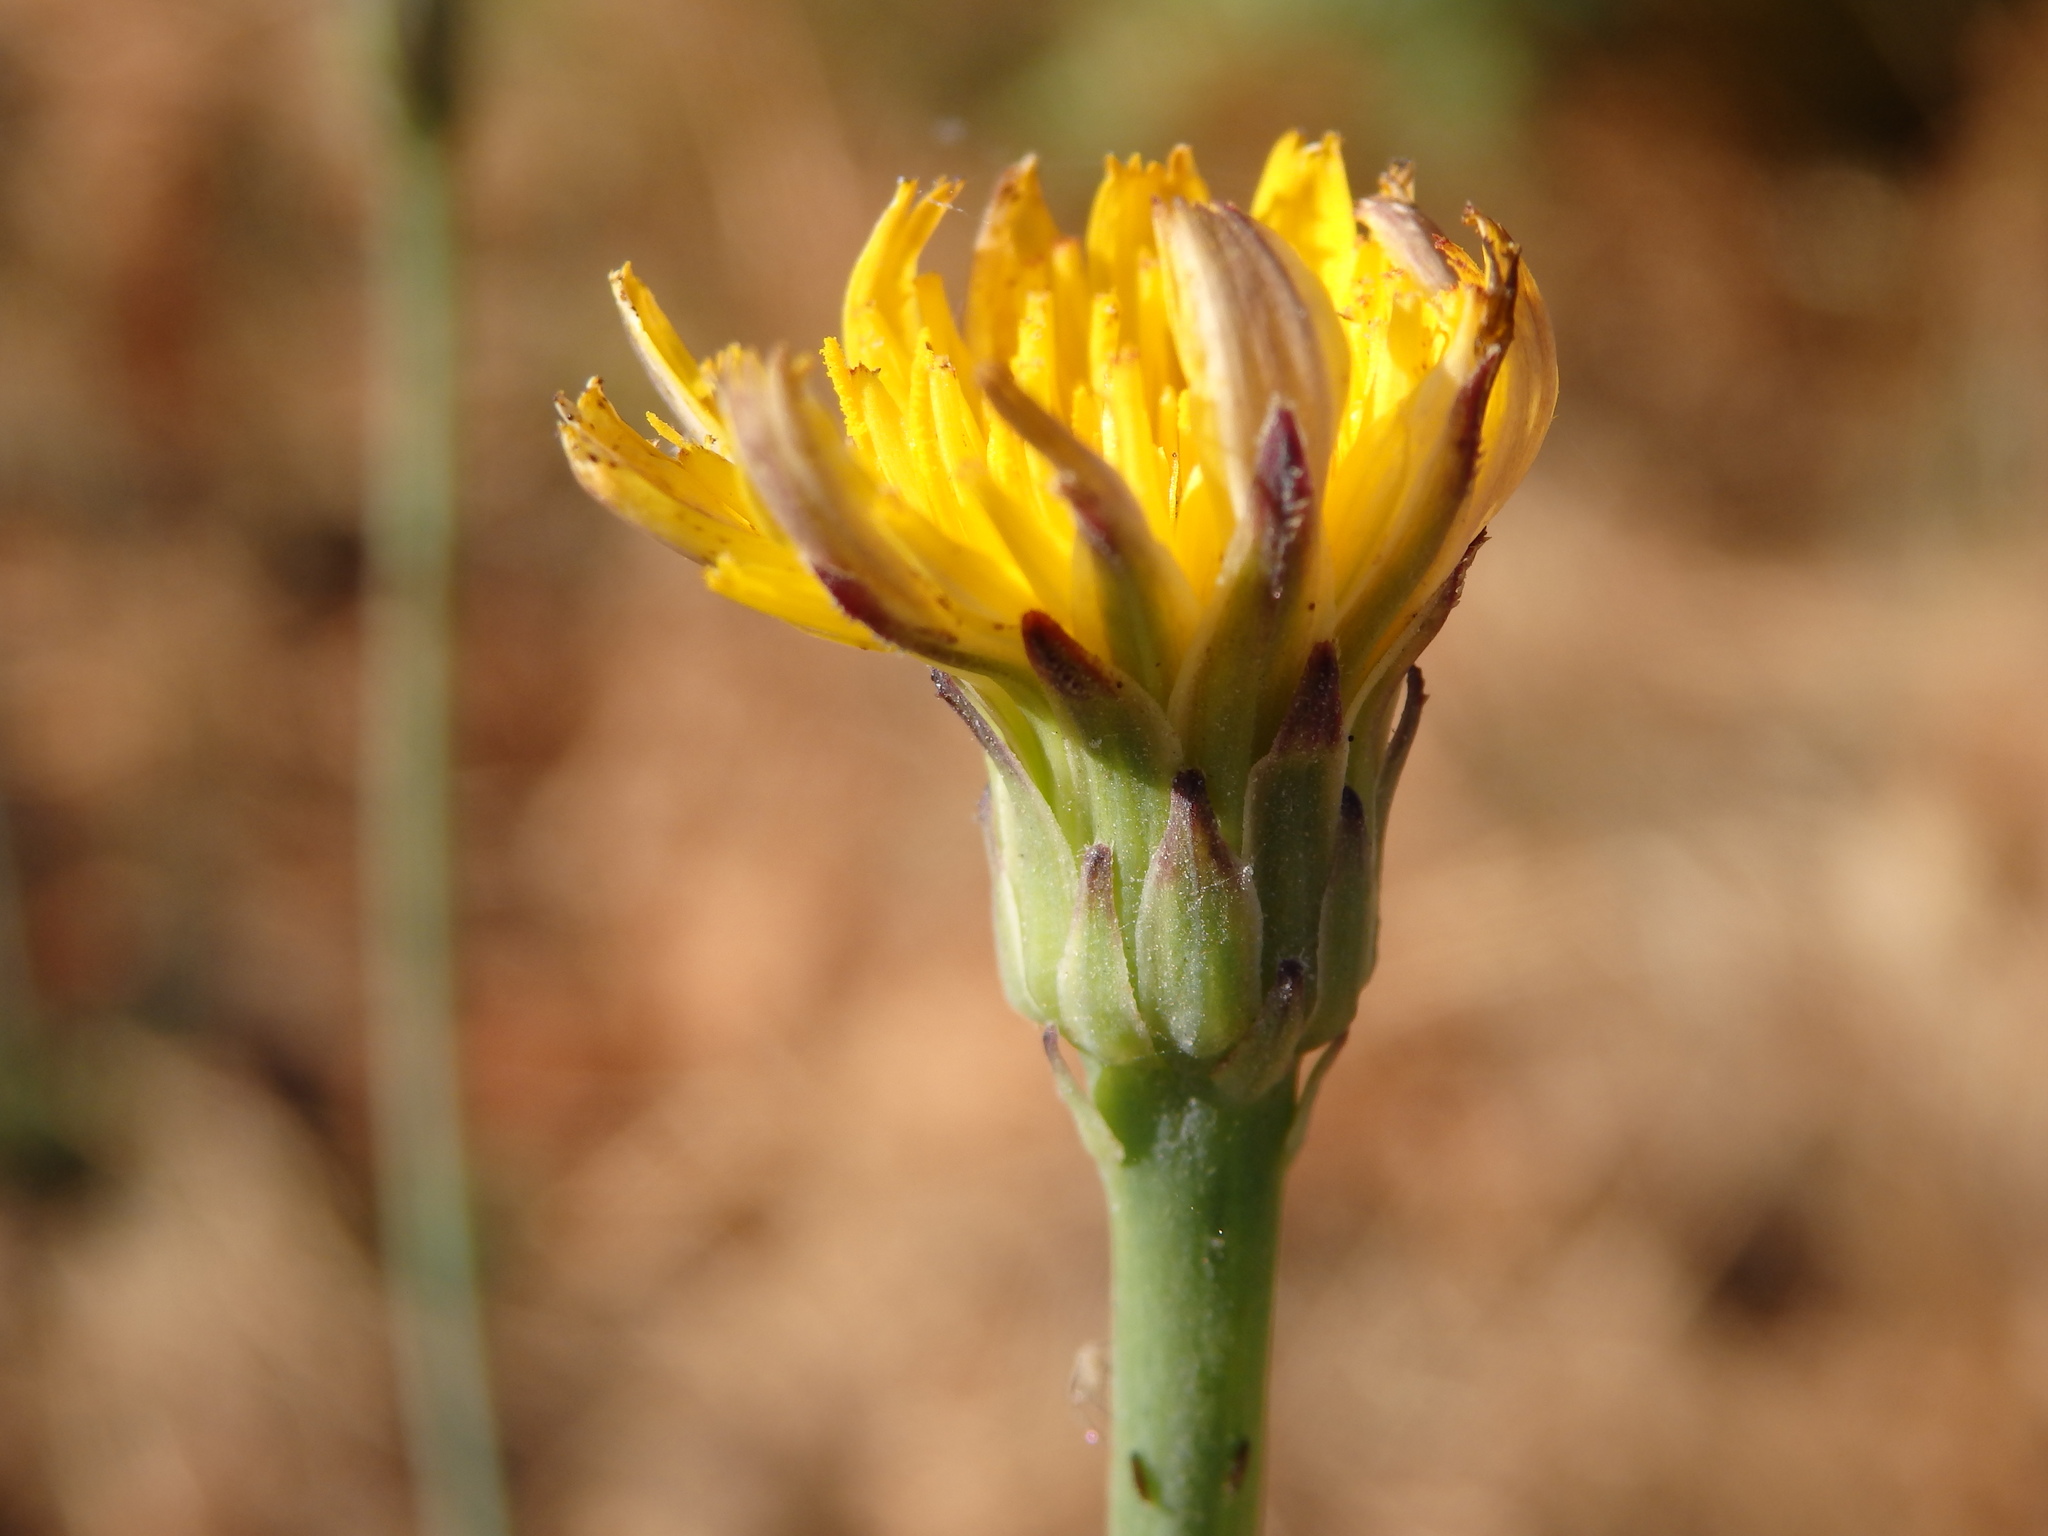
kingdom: Plantae
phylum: Tracheophyta
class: Magnoliopsida
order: Asterales
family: Asteraceae
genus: Hypochaeris
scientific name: Hypochaeris radicata
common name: Flatweed
